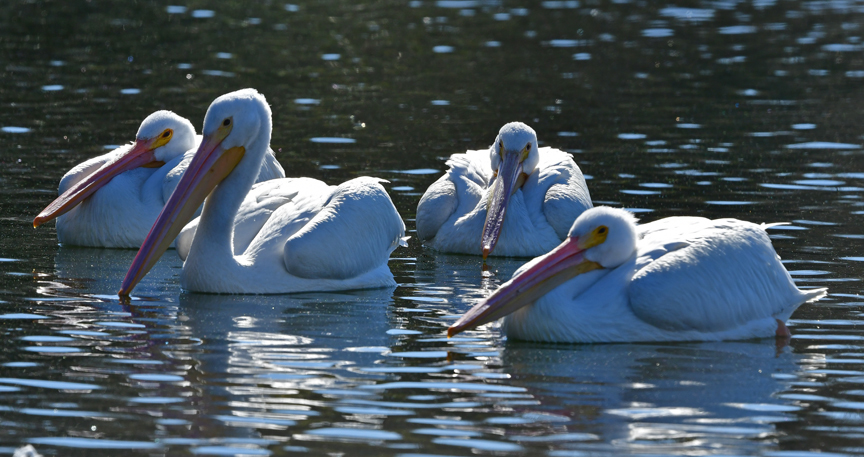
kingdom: Animalia
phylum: Chordata
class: Aves
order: Pelecaniformes
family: Pelecanidae
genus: Pelecanus
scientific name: Pelecanus erythrorhynchos
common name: American white pelican
